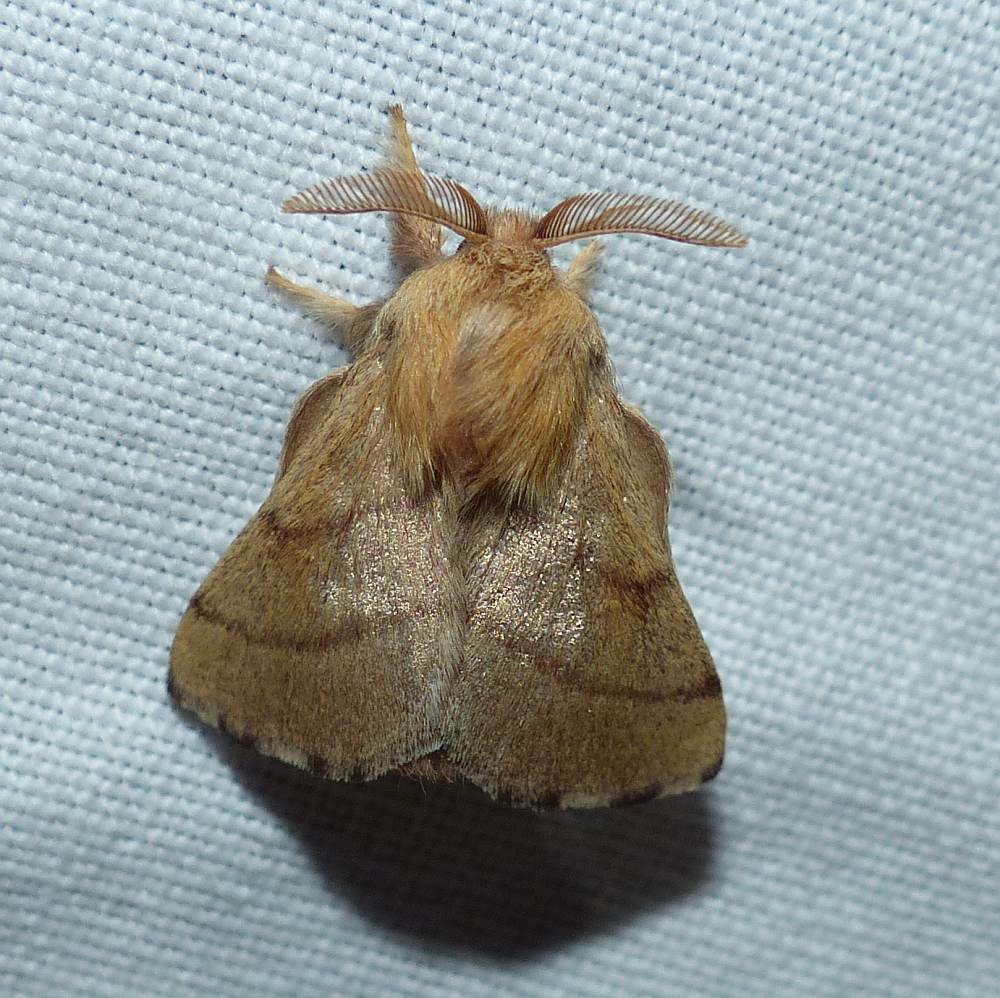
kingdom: Animalia
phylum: Arthropoda
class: Insecta
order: Lepidoptera
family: Lasiocampidae
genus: Malacosoma
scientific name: Malacosoma disstria
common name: Forest tent caterpillar
